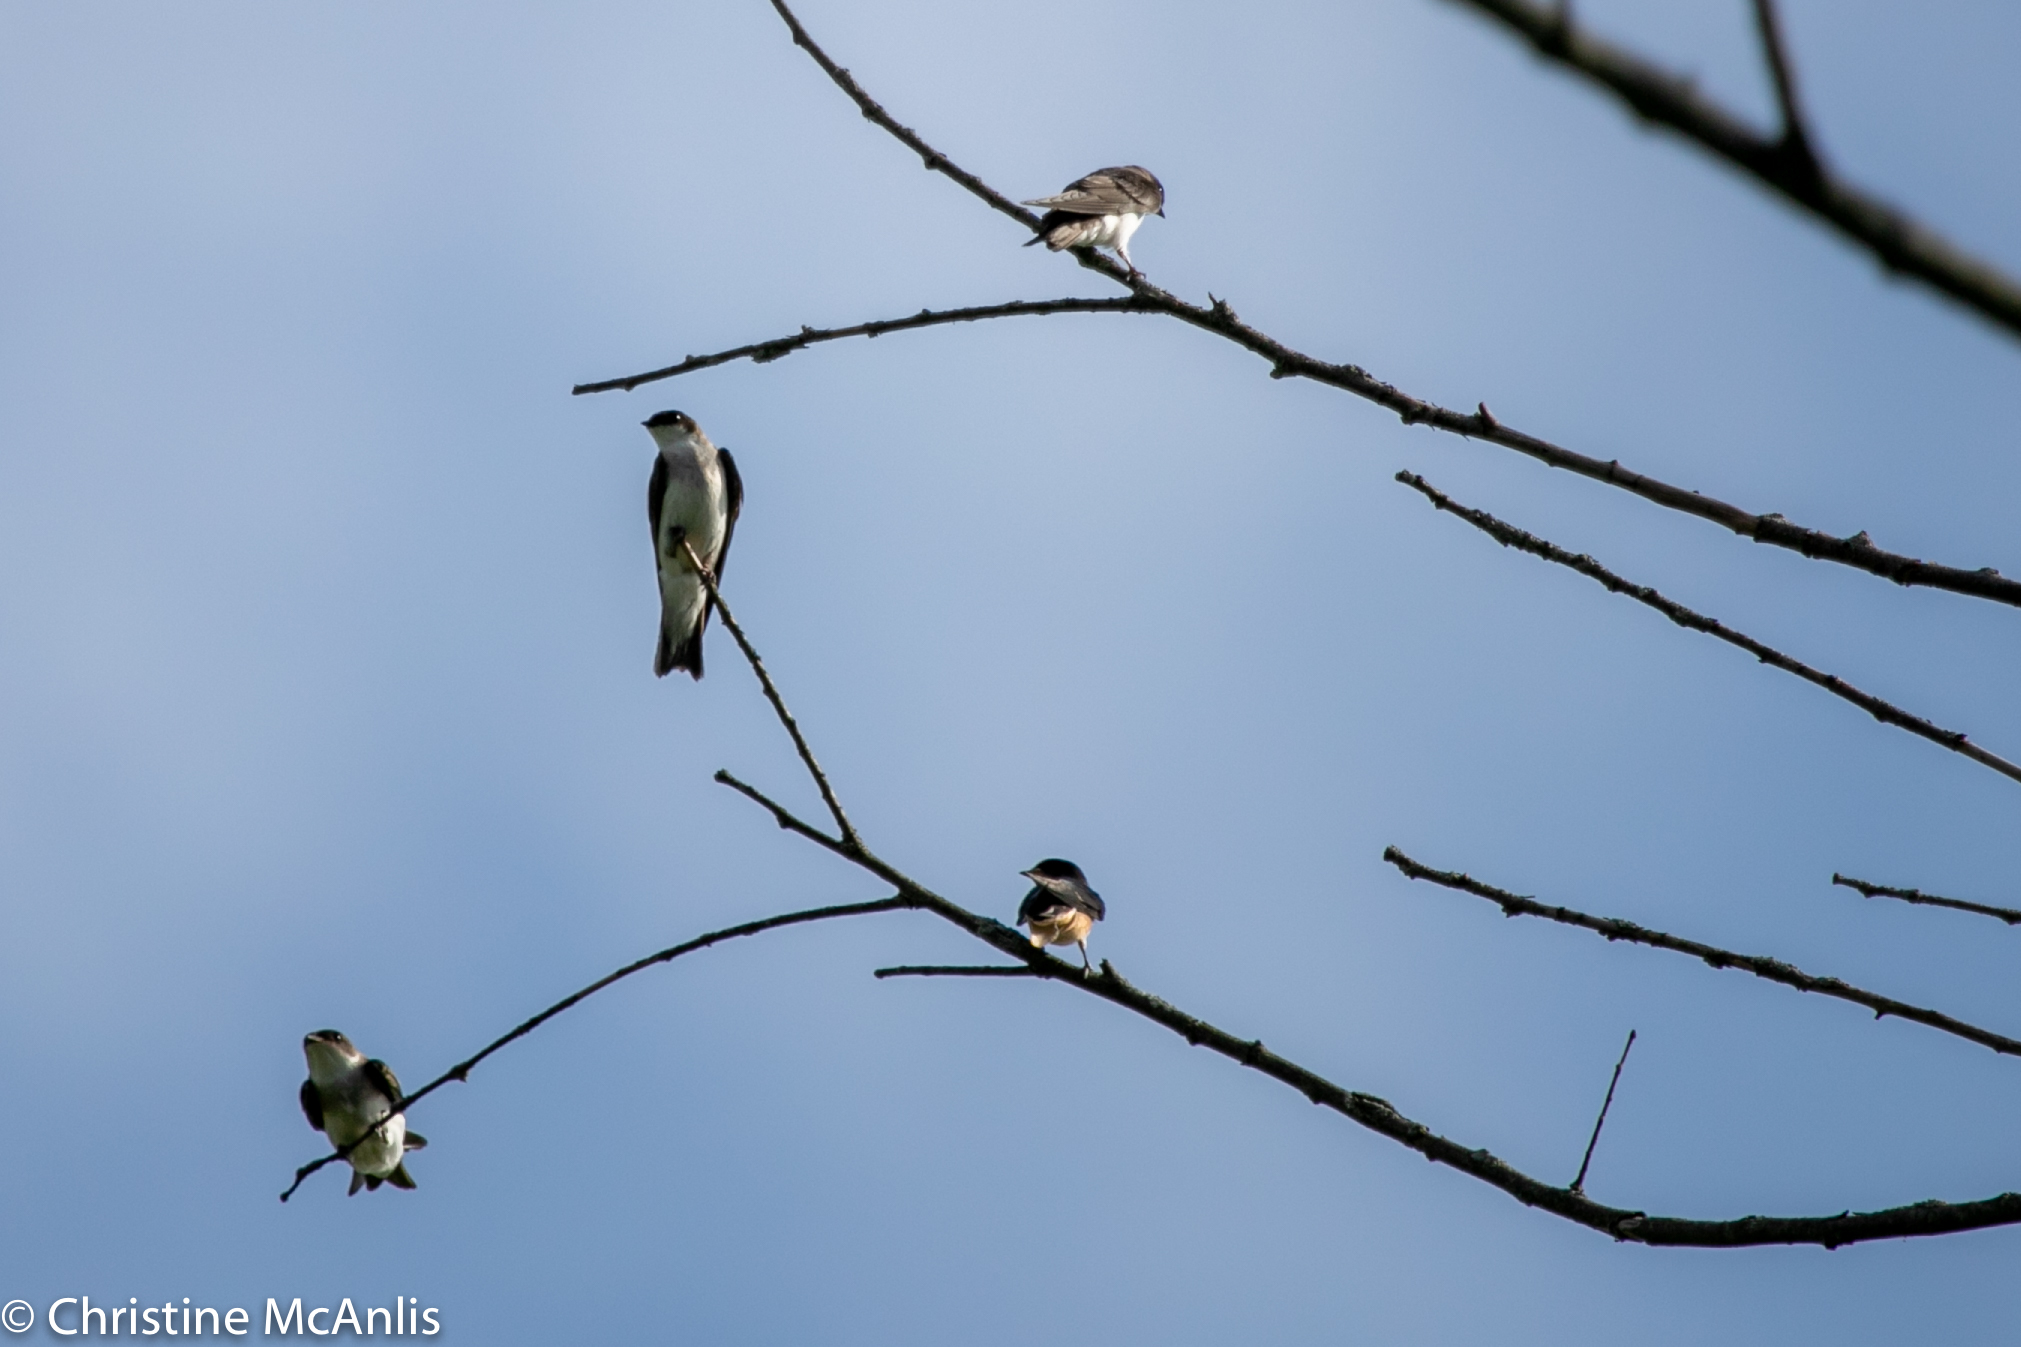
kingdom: Animalia
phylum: Chordata
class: Aves
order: Passeriformes
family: Hirundinidae
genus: Stelgidopteryx
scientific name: Stelgidopteryx serripennis
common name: Northern rough-winged swallow
